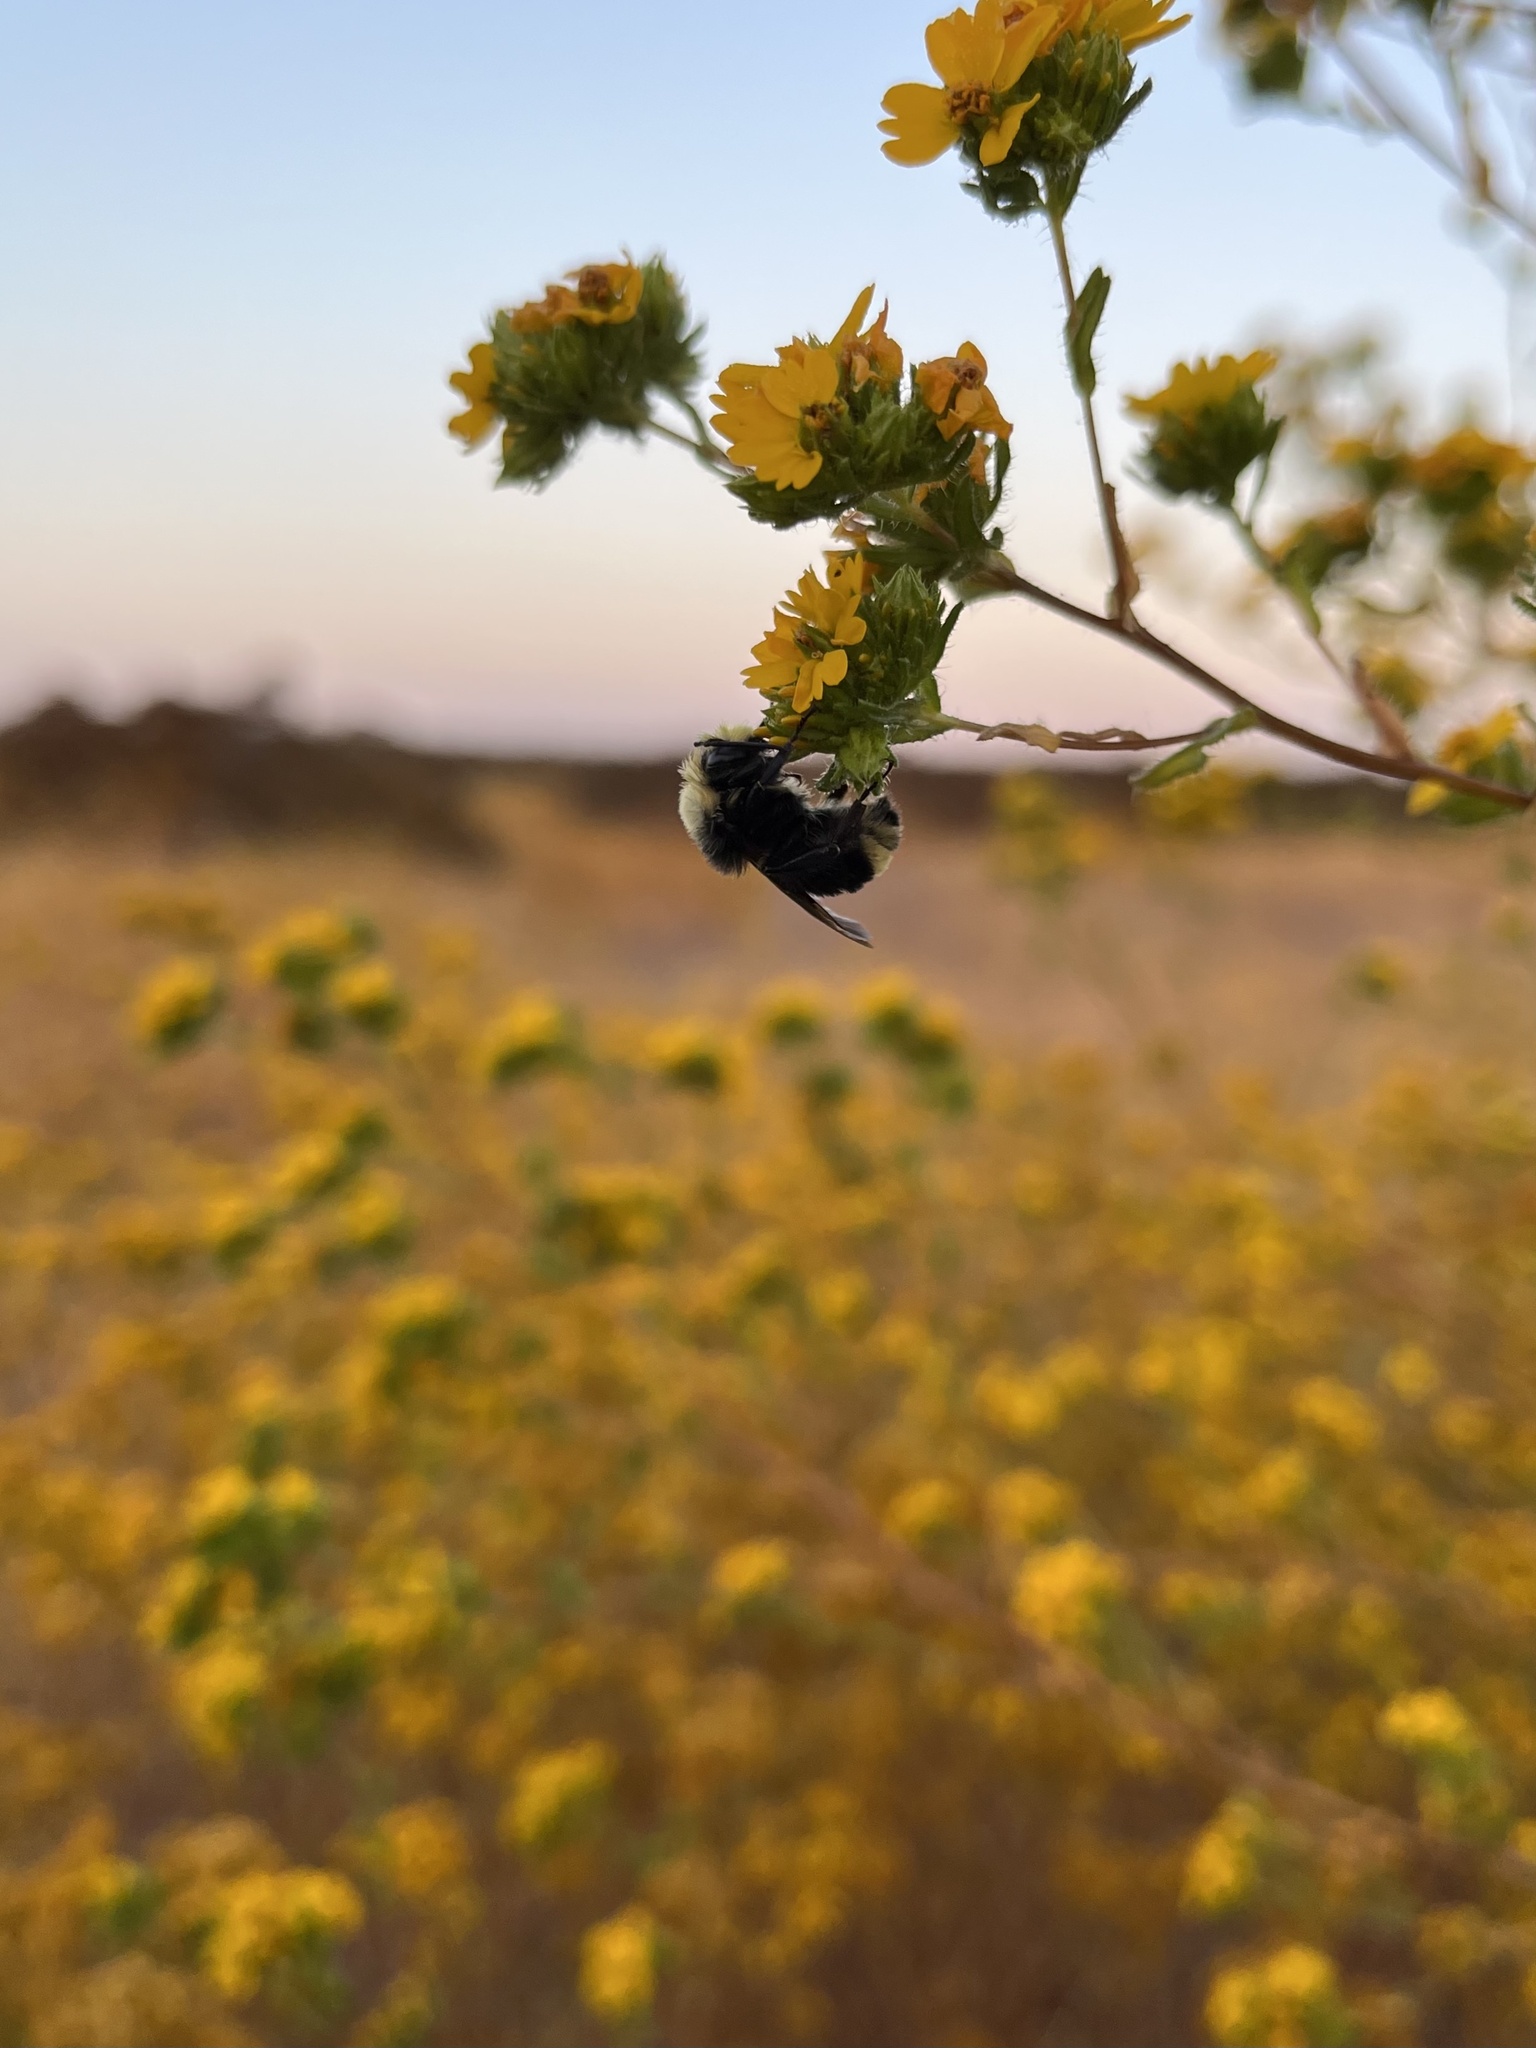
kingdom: Animalia
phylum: Arthropoda
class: Insecta
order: Hymenoptera
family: Apidae
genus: Bombus
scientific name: Bombus vosnesenskii
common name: Vosnesensky bumble bee
